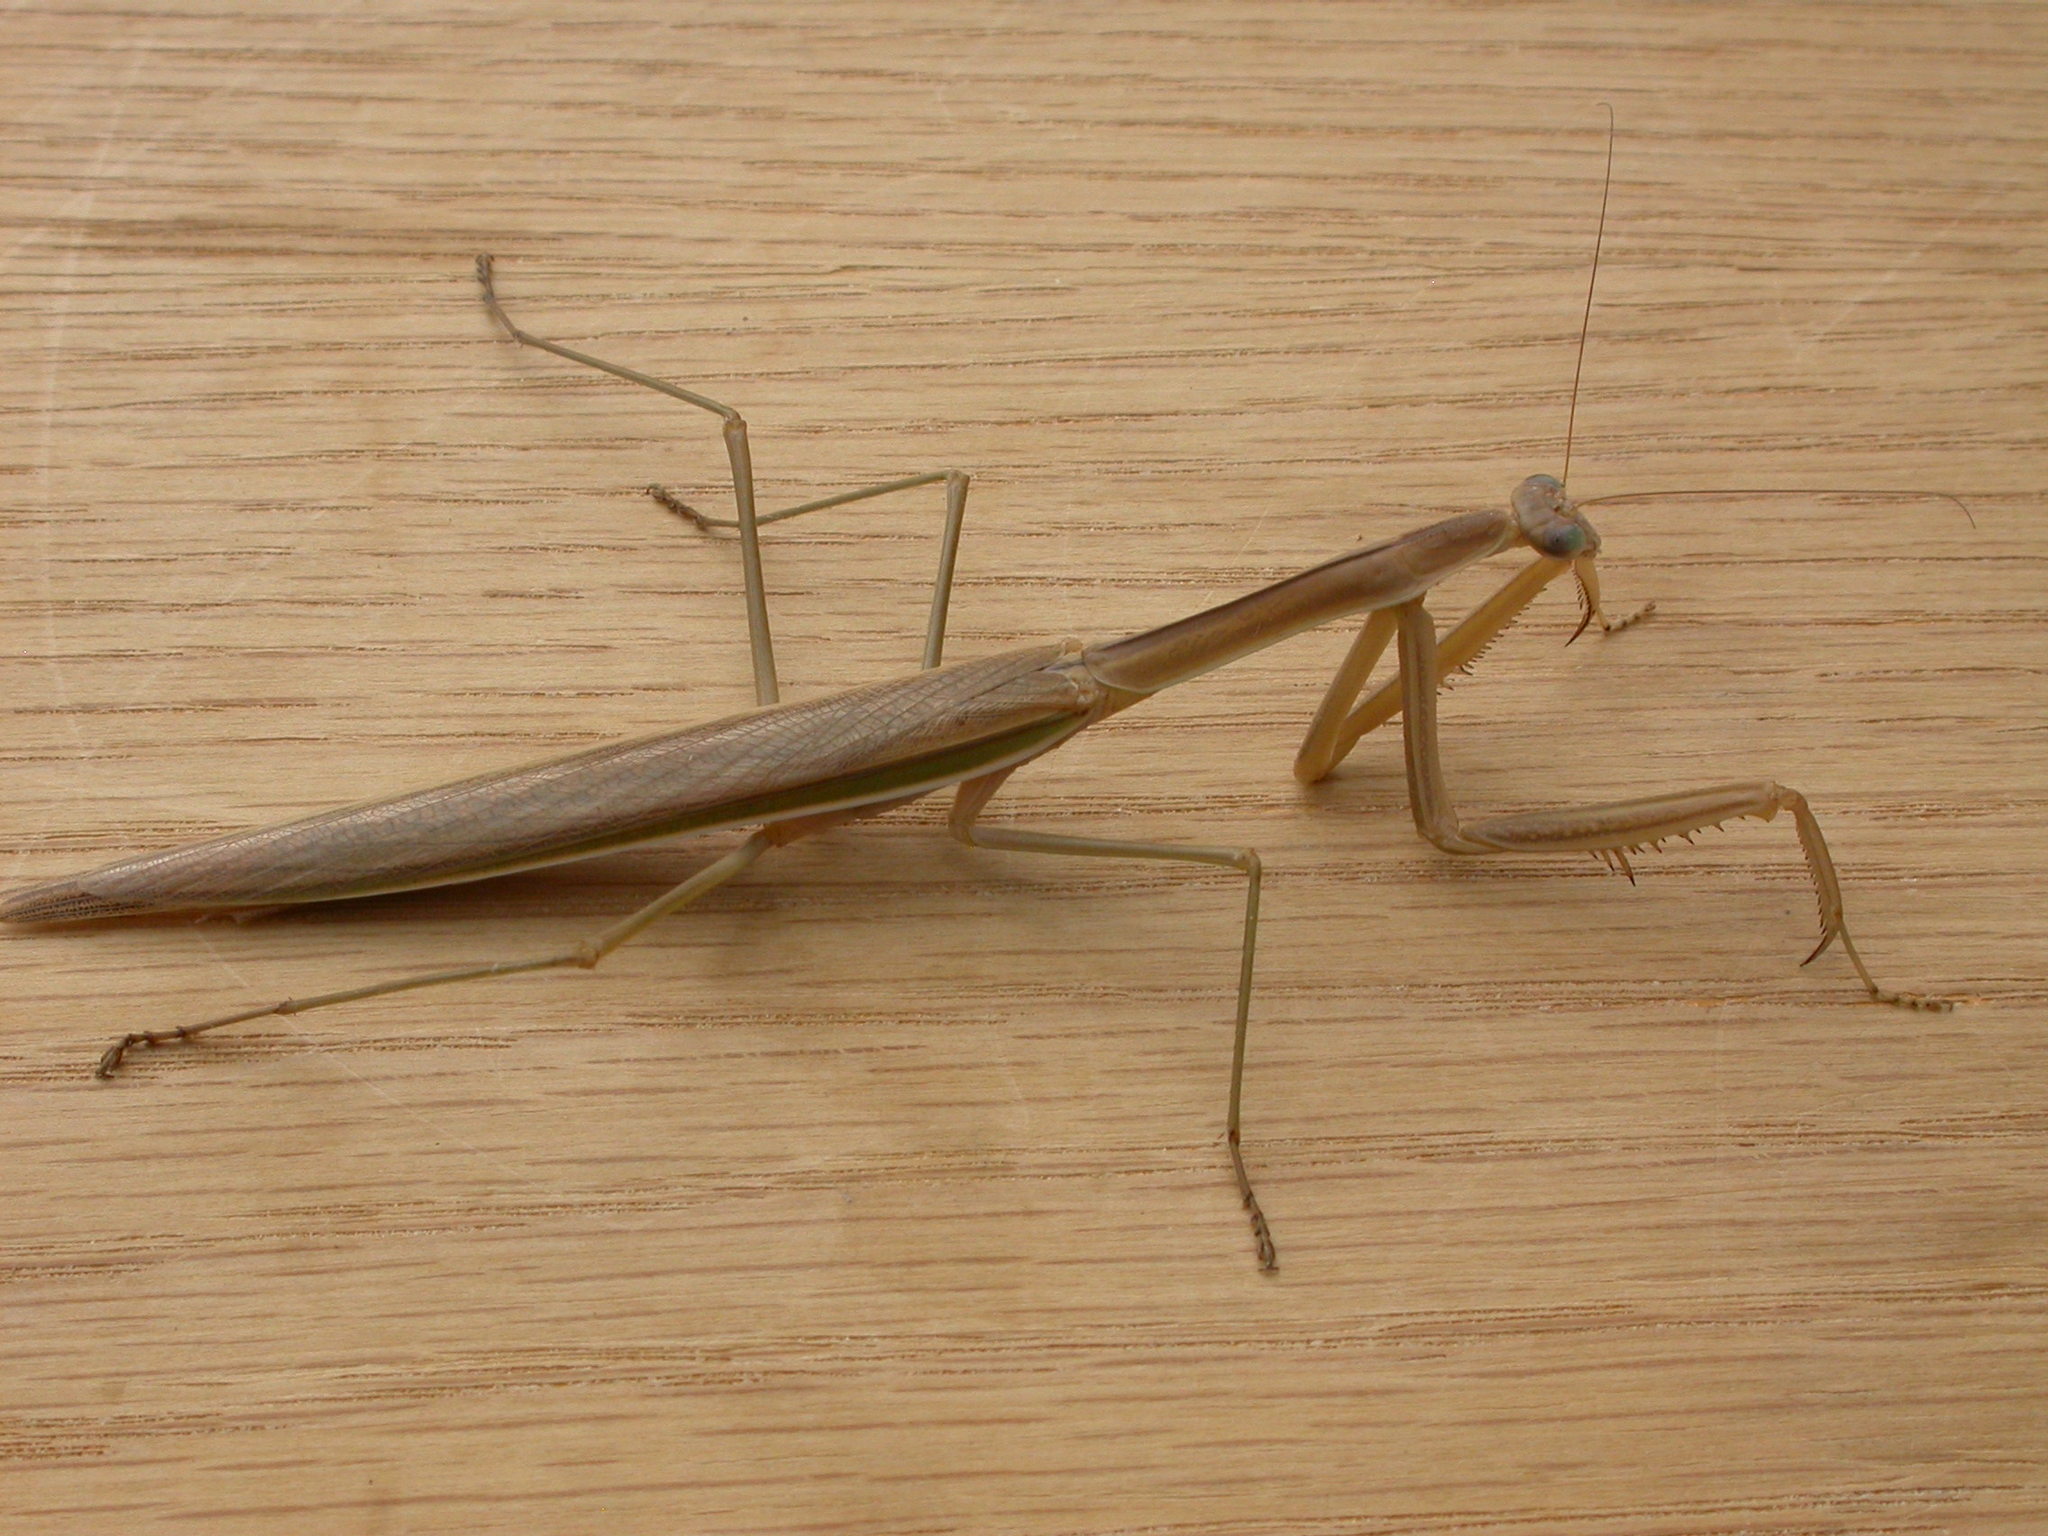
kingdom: Animalia
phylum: Arthropoda
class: Insecta
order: Mantodea
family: Mantidae
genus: Tenodera
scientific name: Tenodera australasiae
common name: Purple-winged mantis
